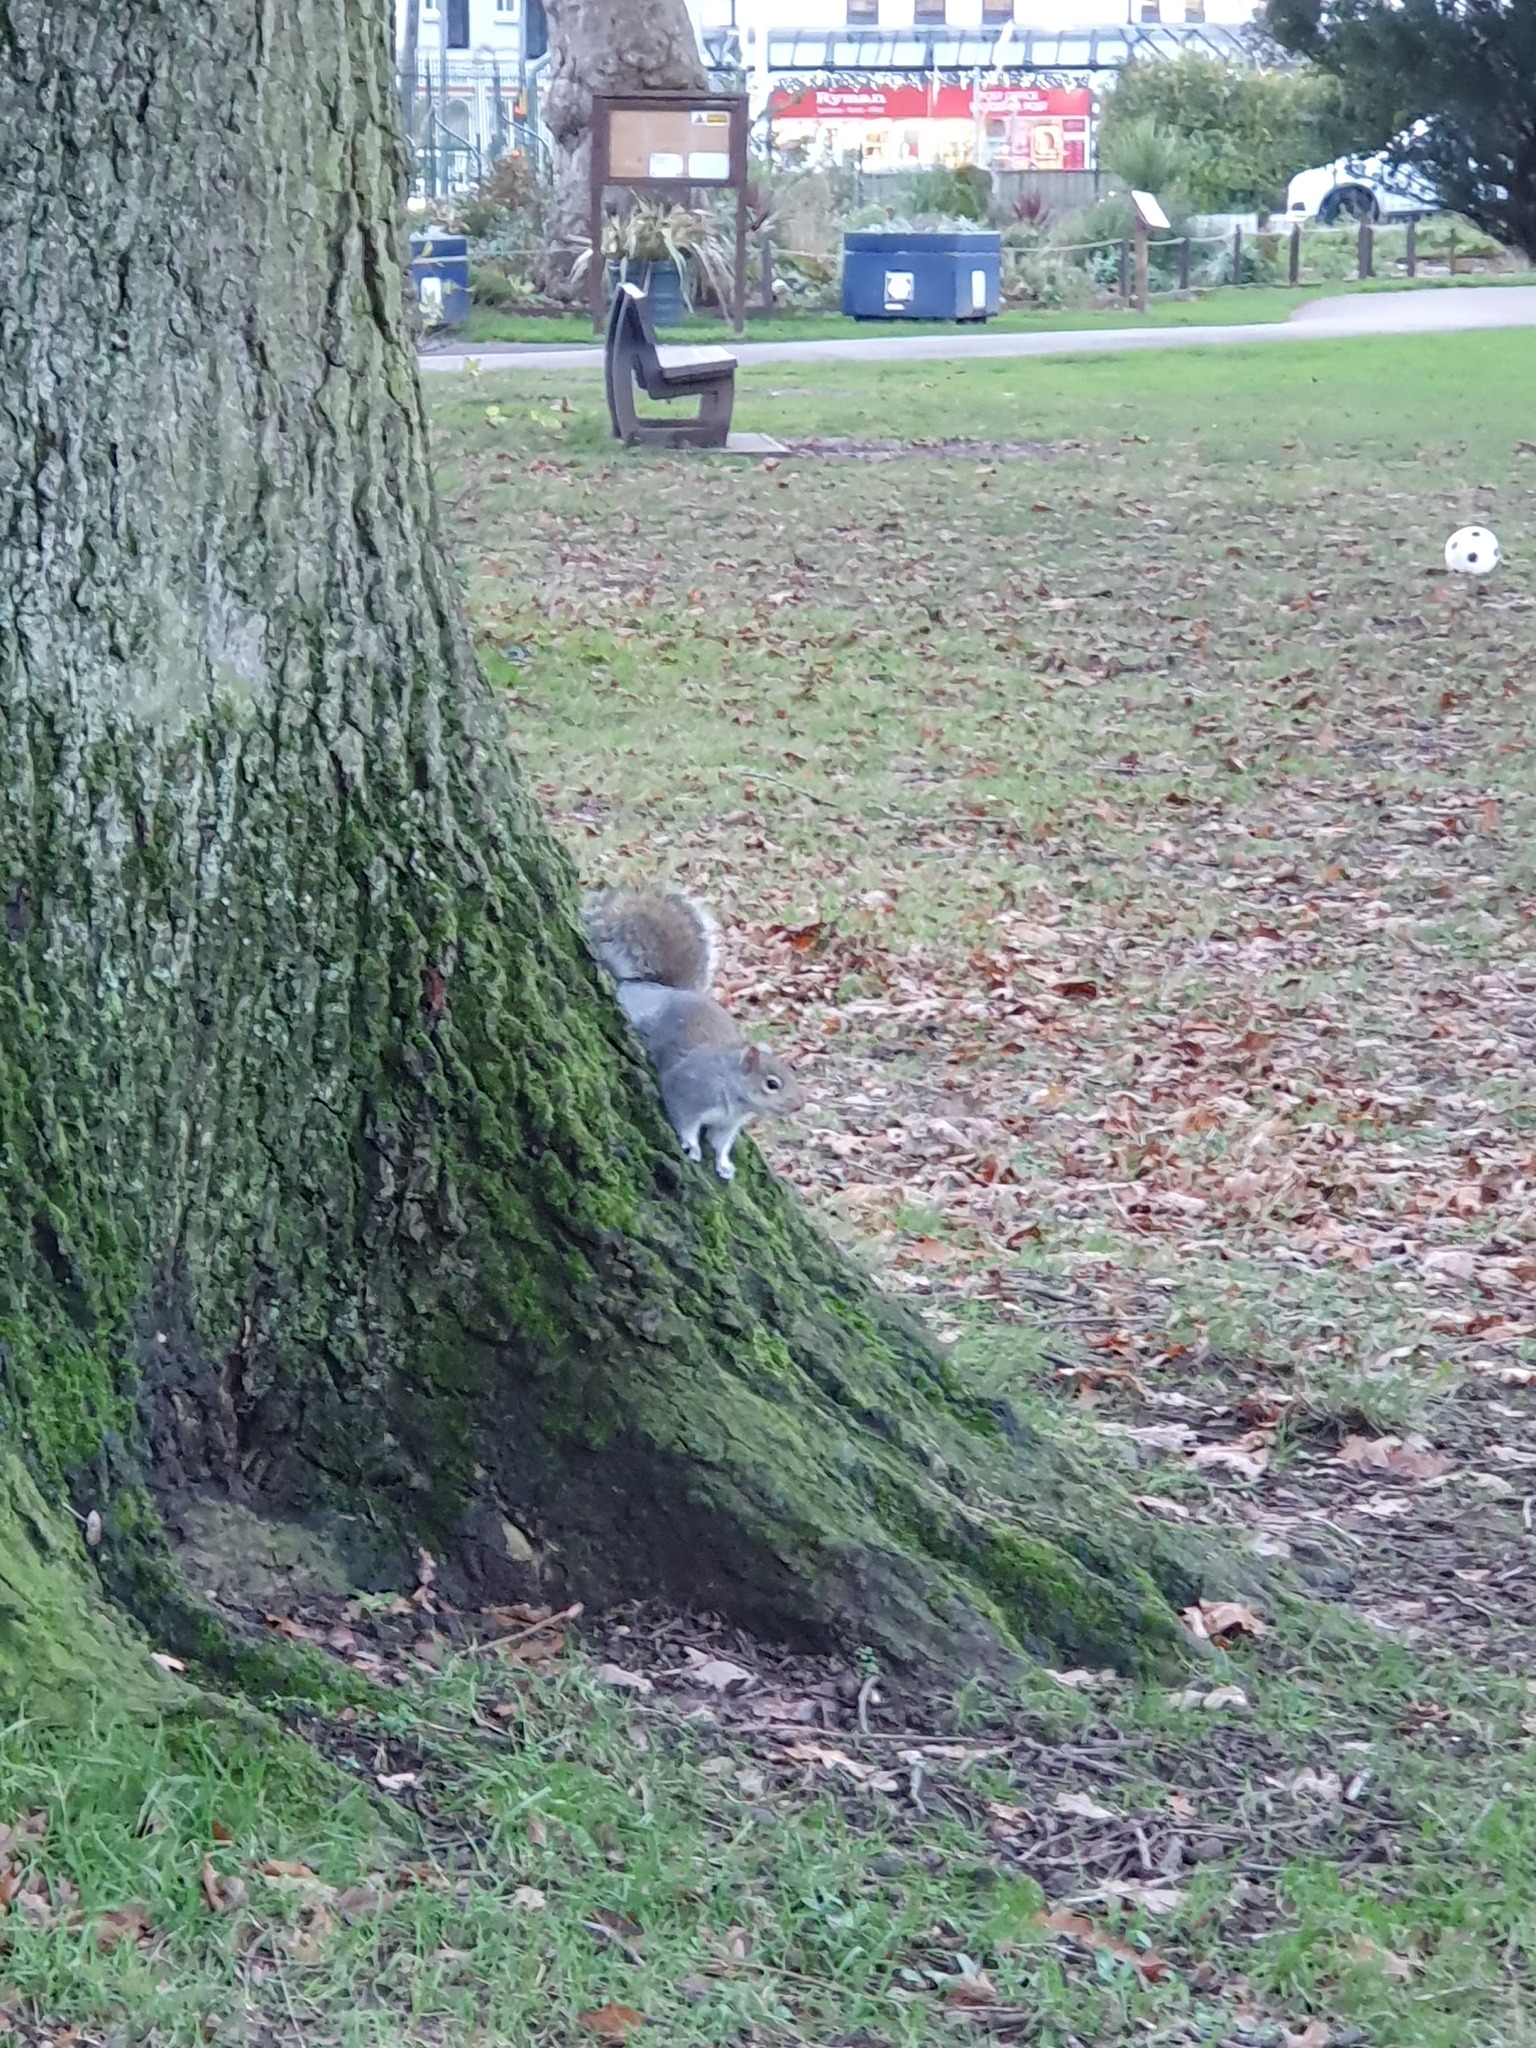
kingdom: Animalia
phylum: Chordata
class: Mammalia
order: Rodentia
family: Sciuridae
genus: Sciurus
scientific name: Sciurus carolinensis
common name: Eastern gray squirrel
